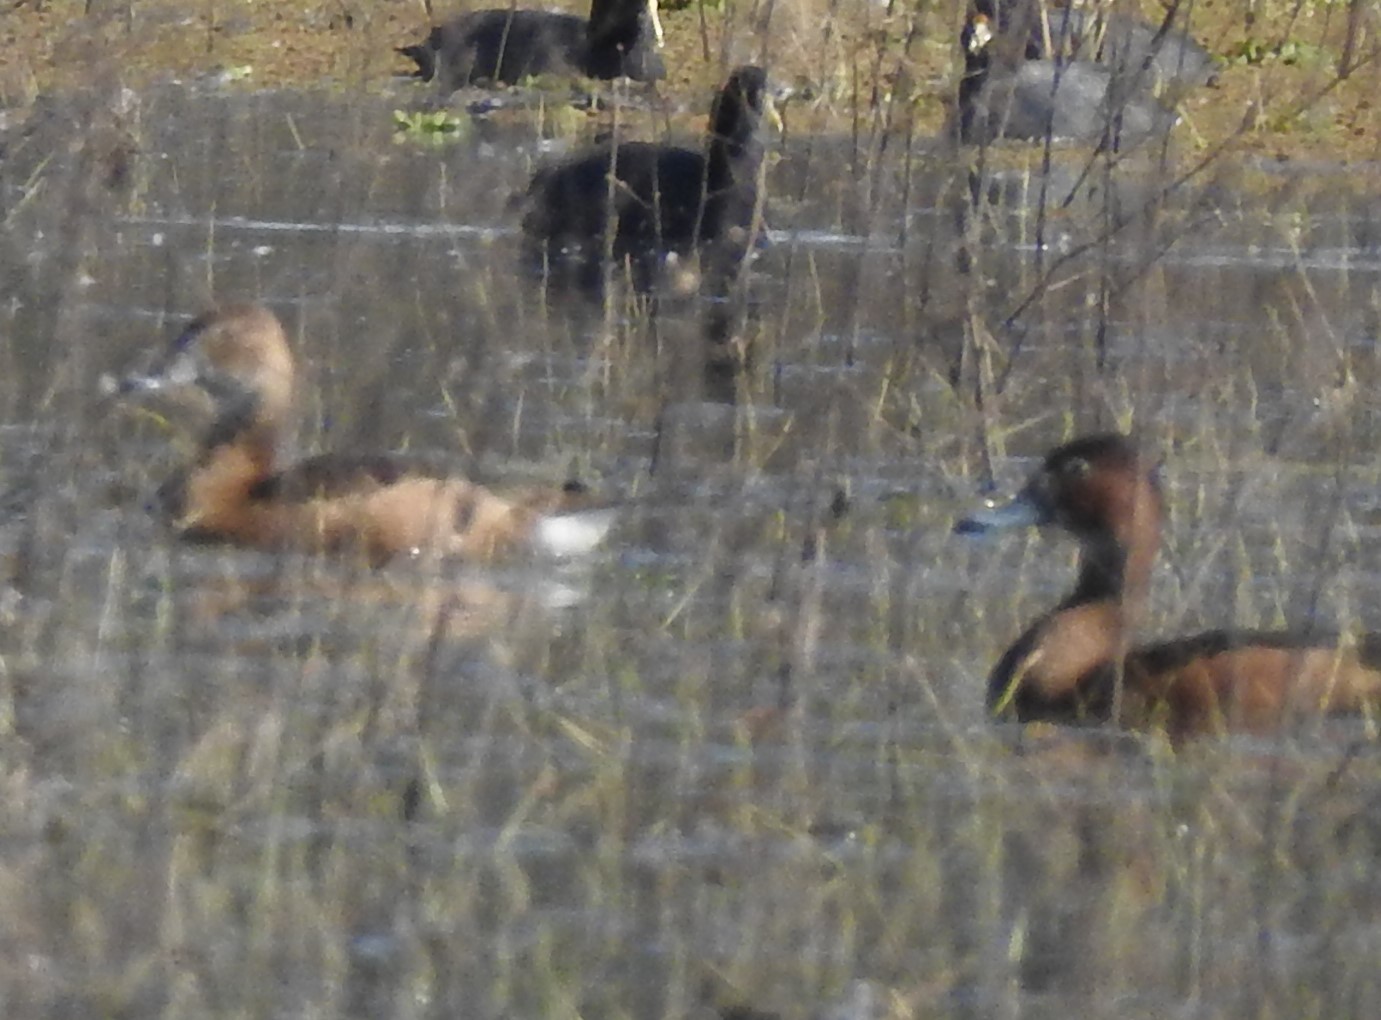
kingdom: Animalia
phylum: Chordata
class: Aves
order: Anseriformes
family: Anatidae
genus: Netta
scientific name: Netta peposaca
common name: Rosy-billed pochard
